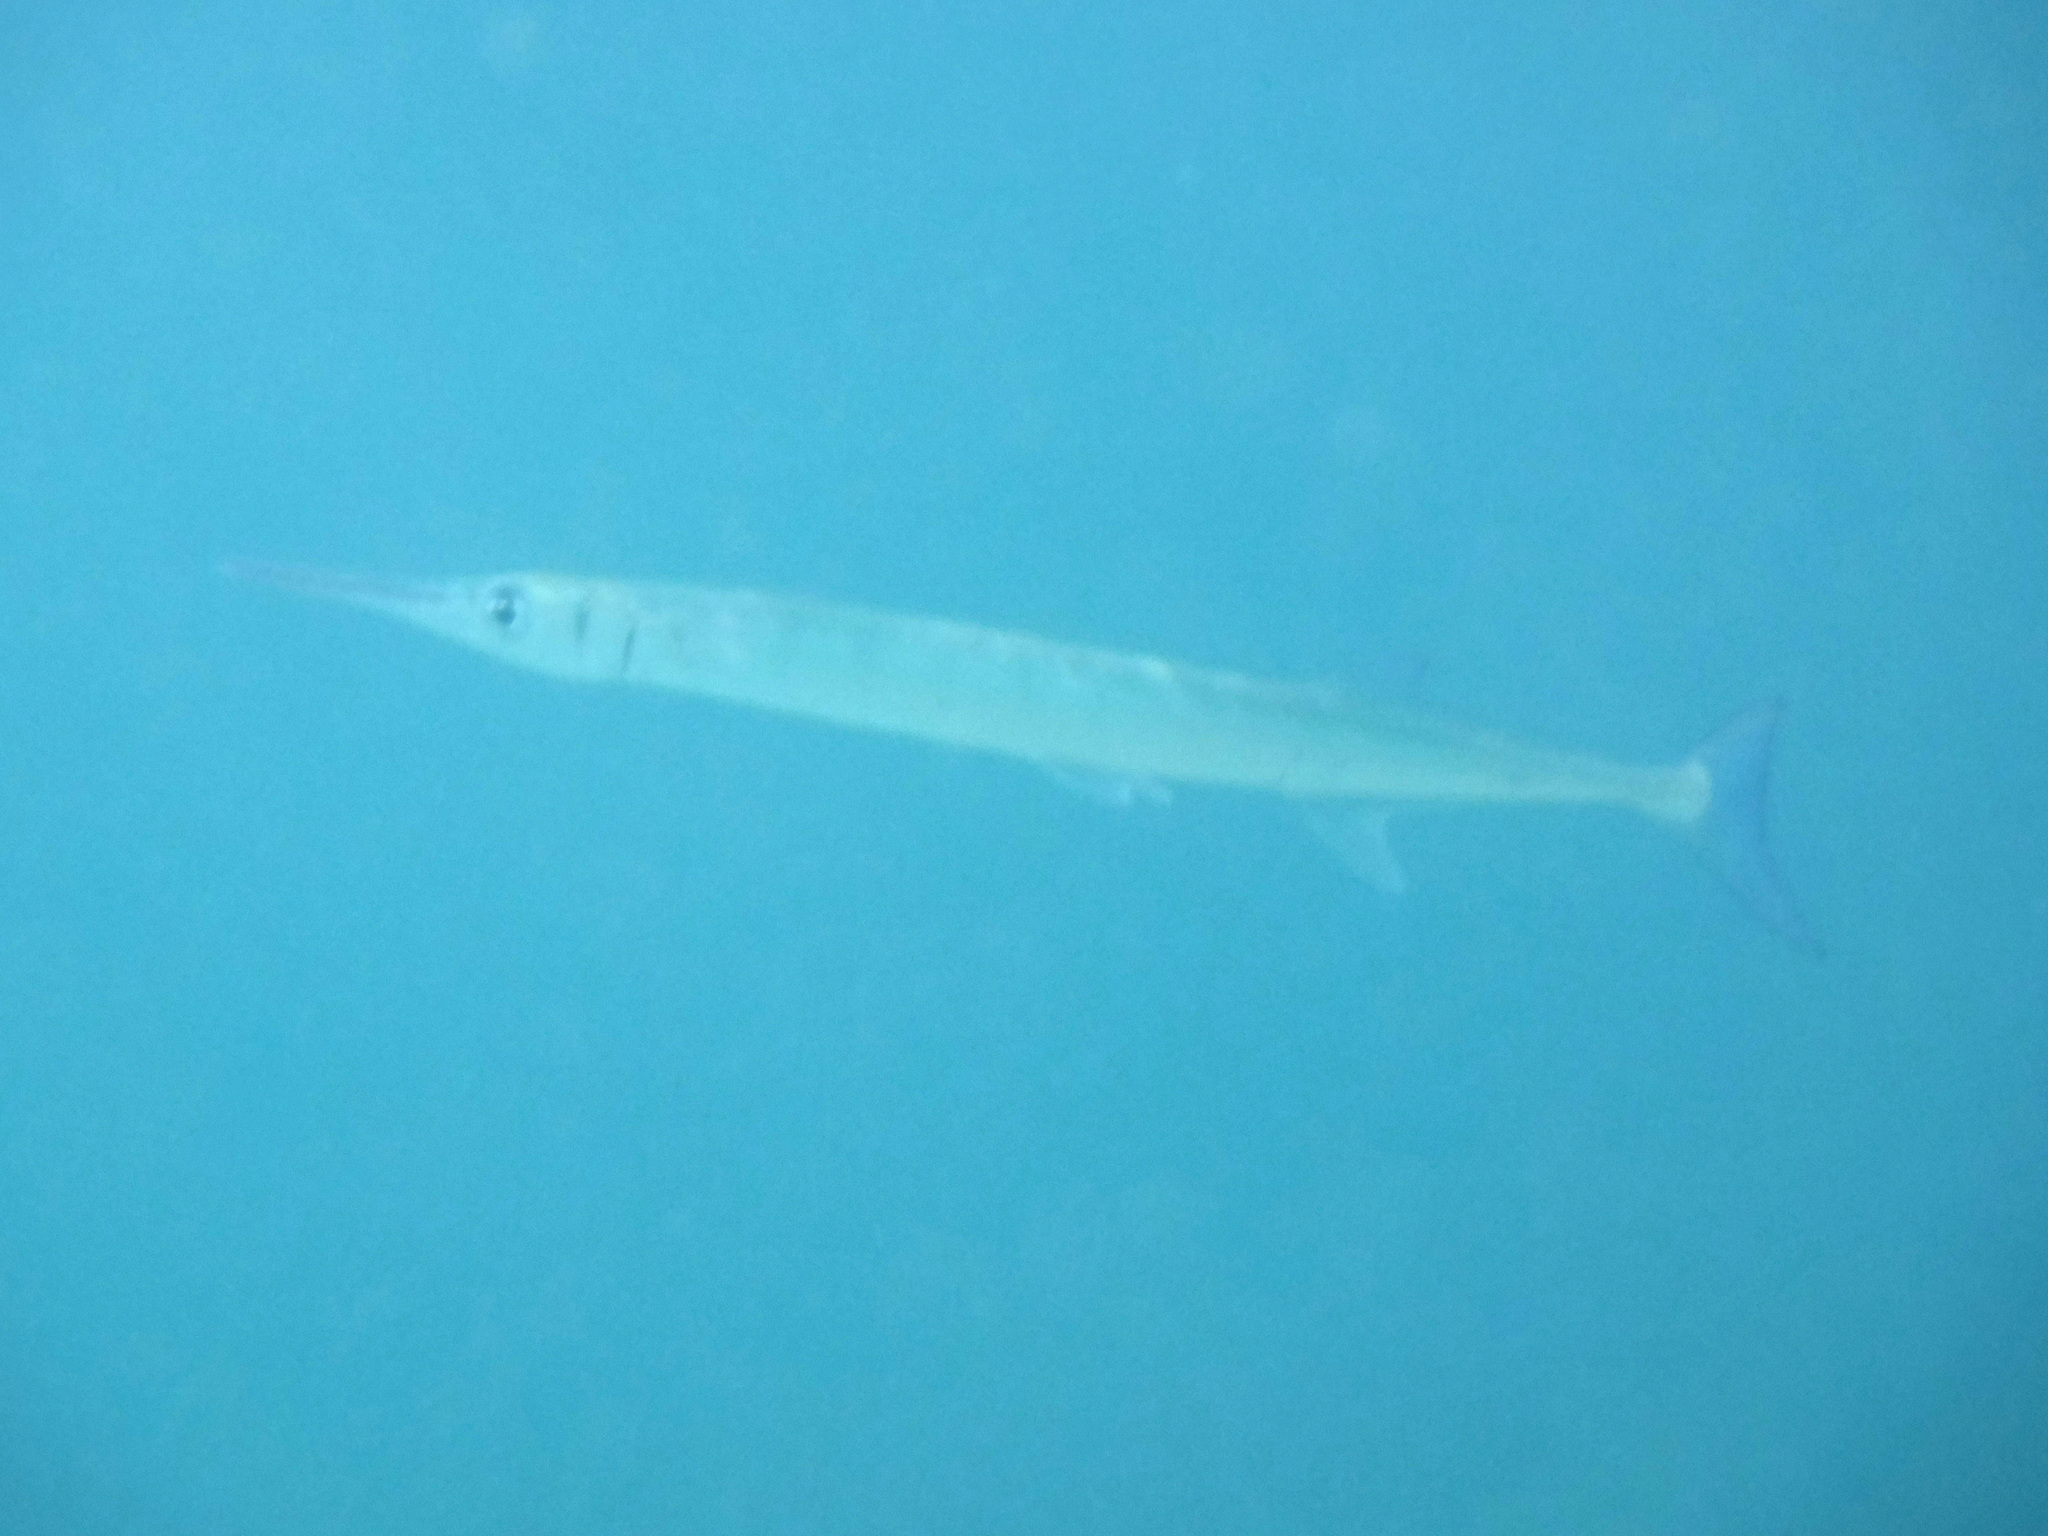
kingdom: Animalia
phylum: Chordata
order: Beloniformes
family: Belonidae
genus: Tylosurus
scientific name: Tylosurus crocodilus
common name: Houndfish
